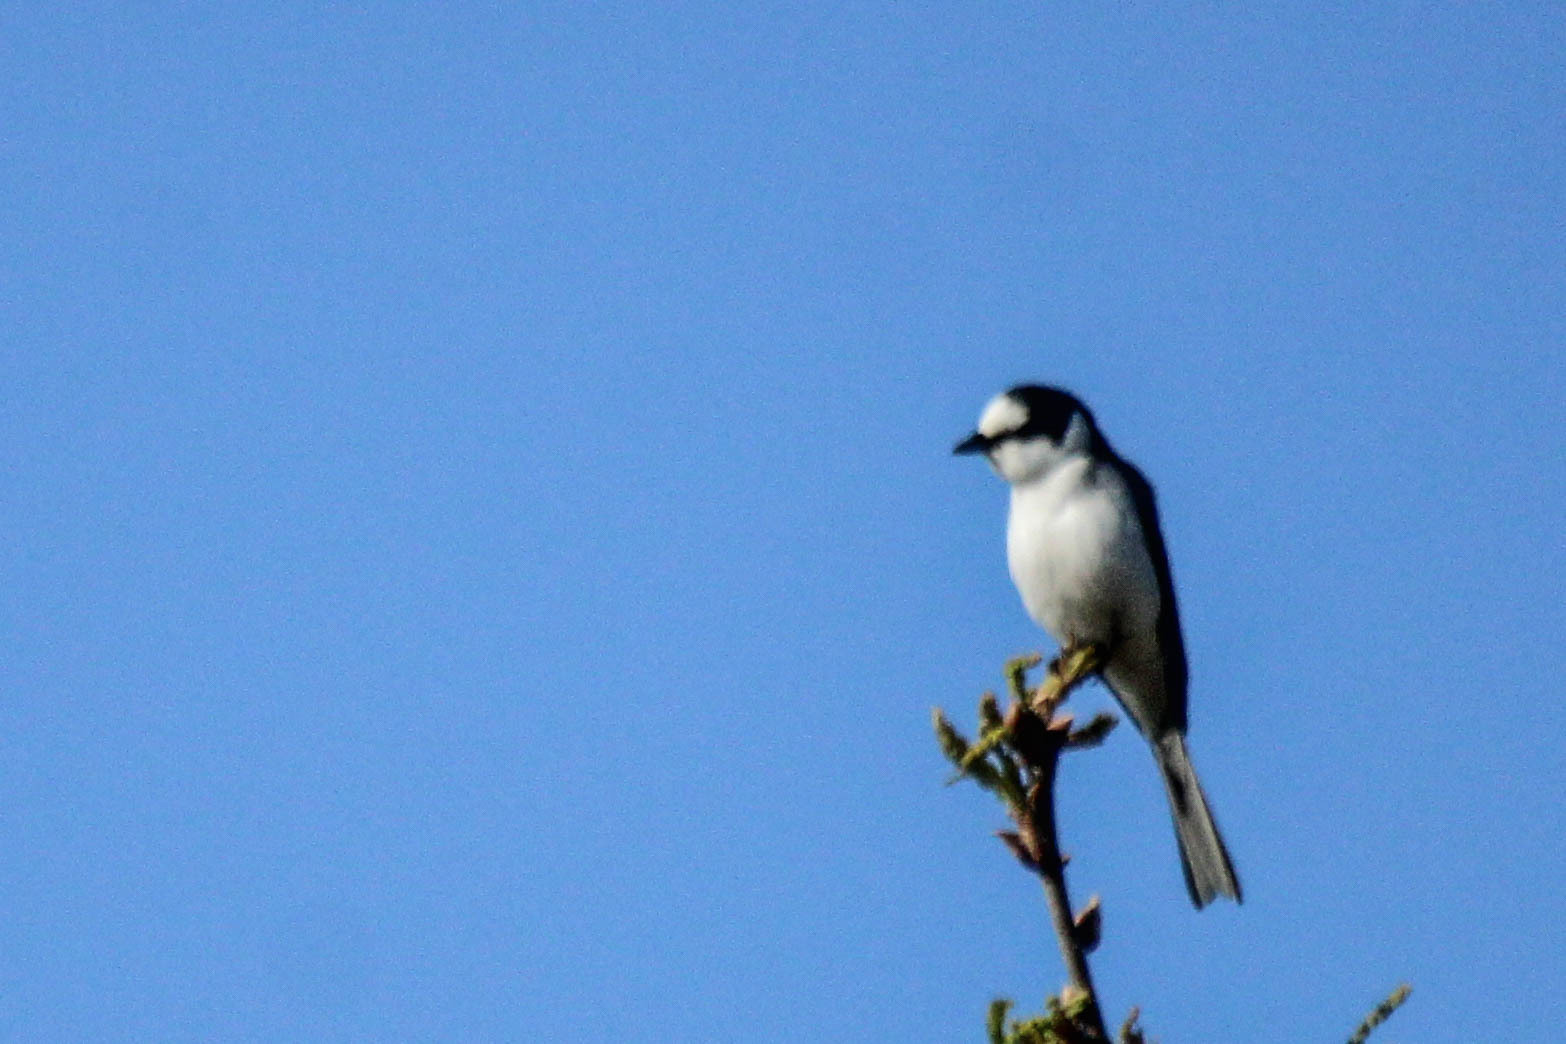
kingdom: Animalia
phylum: Chordata
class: Aves
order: Passeriformes
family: Campephagidae
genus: Pericrocotus
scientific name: Pericrocotus divaricatus
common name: Ashy minivet
